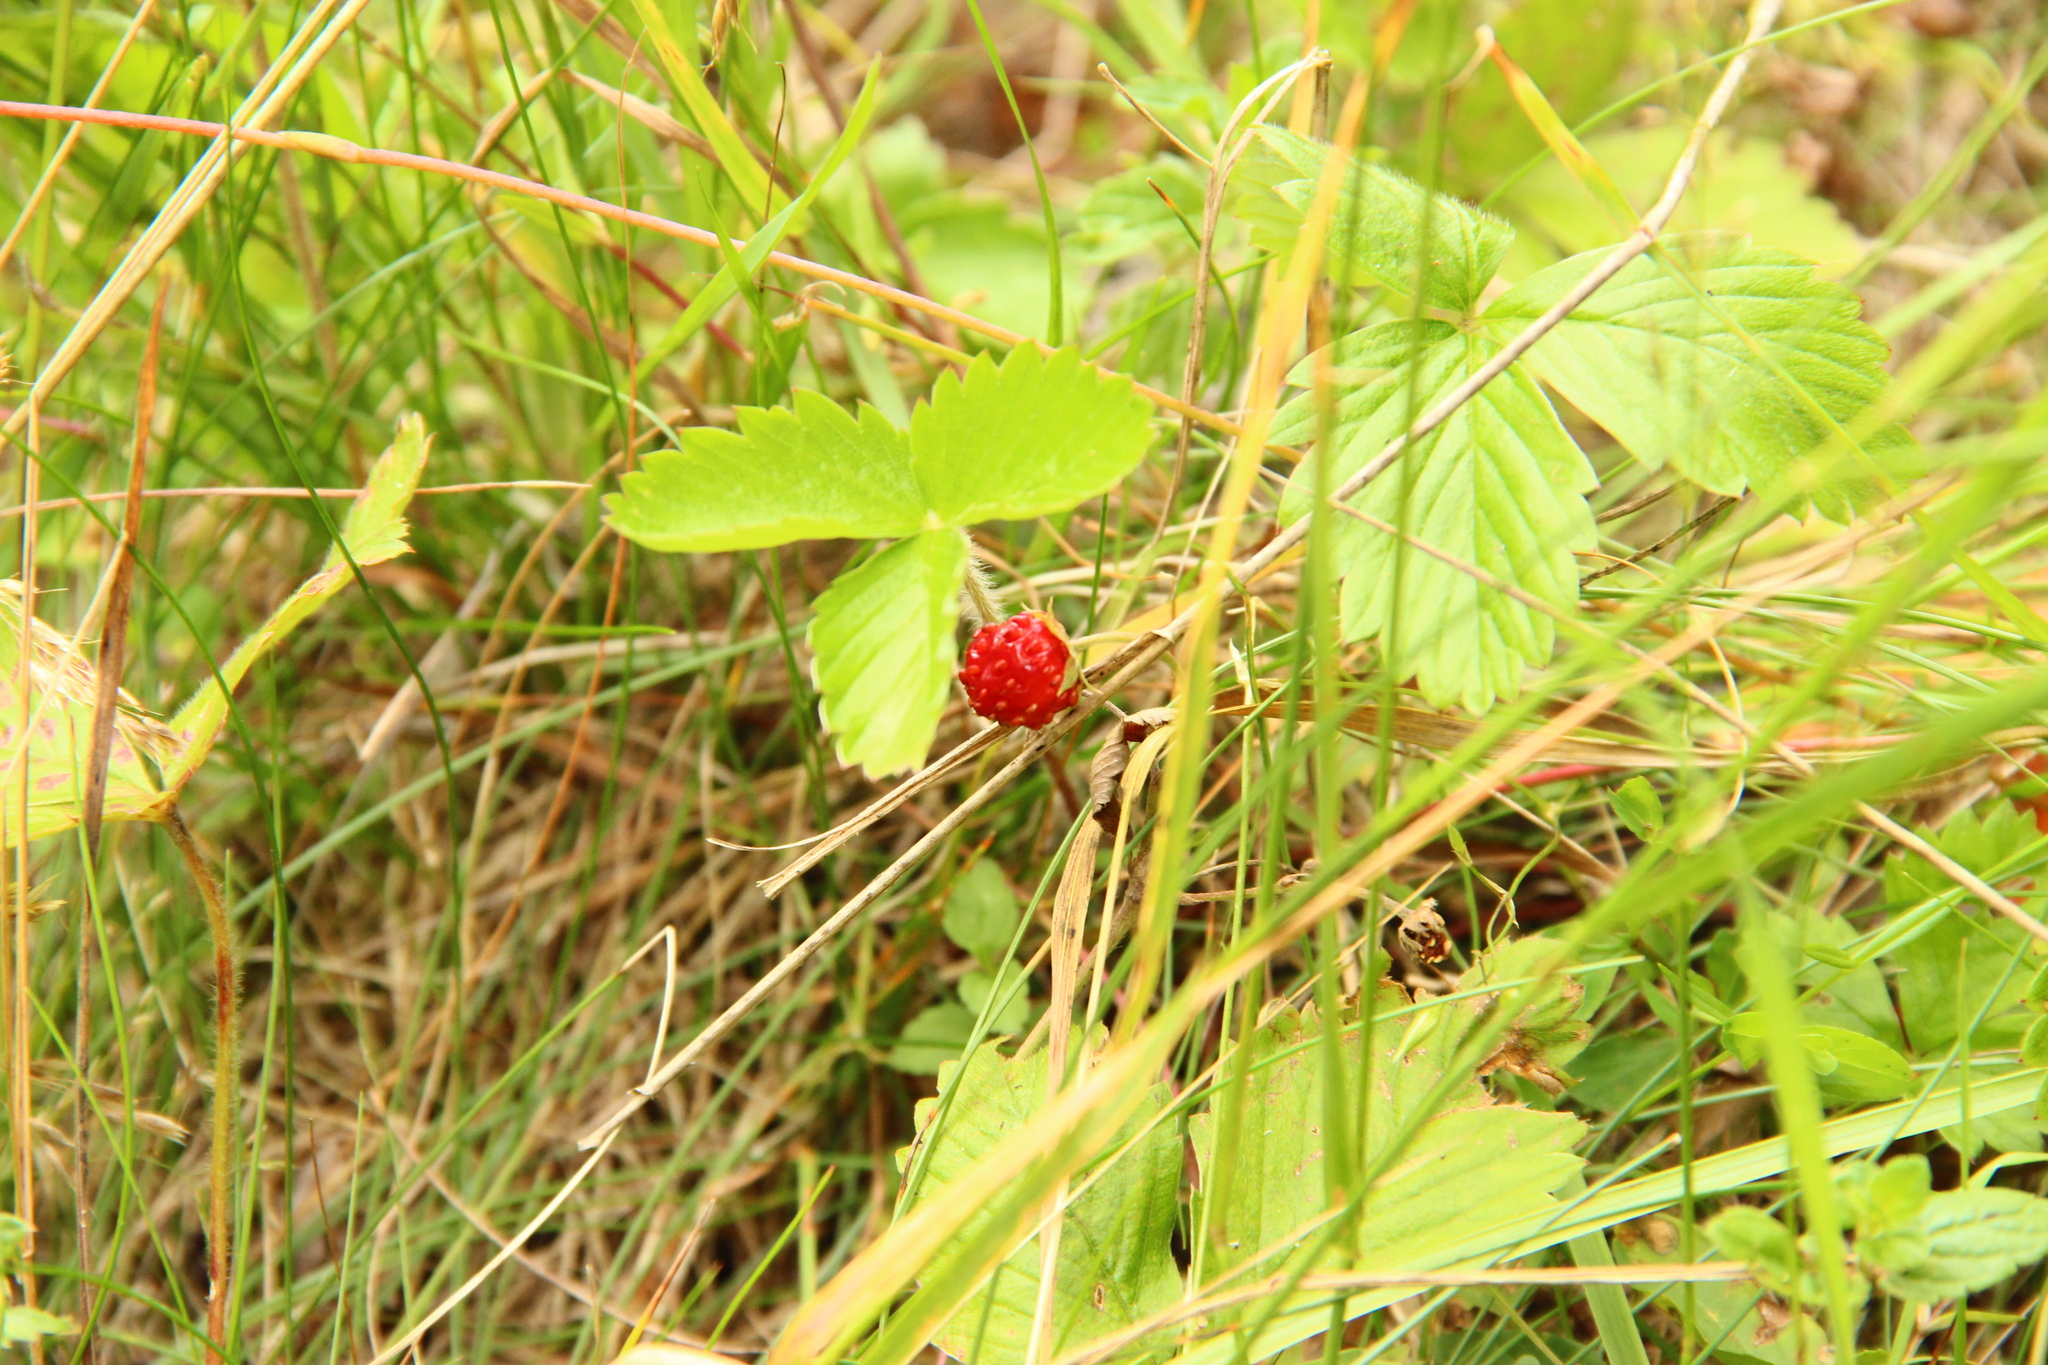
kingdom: Plantae
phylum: Tracheophyta
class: Magnoliopsida
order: Rosales
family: Rosaceae
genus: Fragaria
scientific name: Fragaria vesca
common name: Wild strawberry
